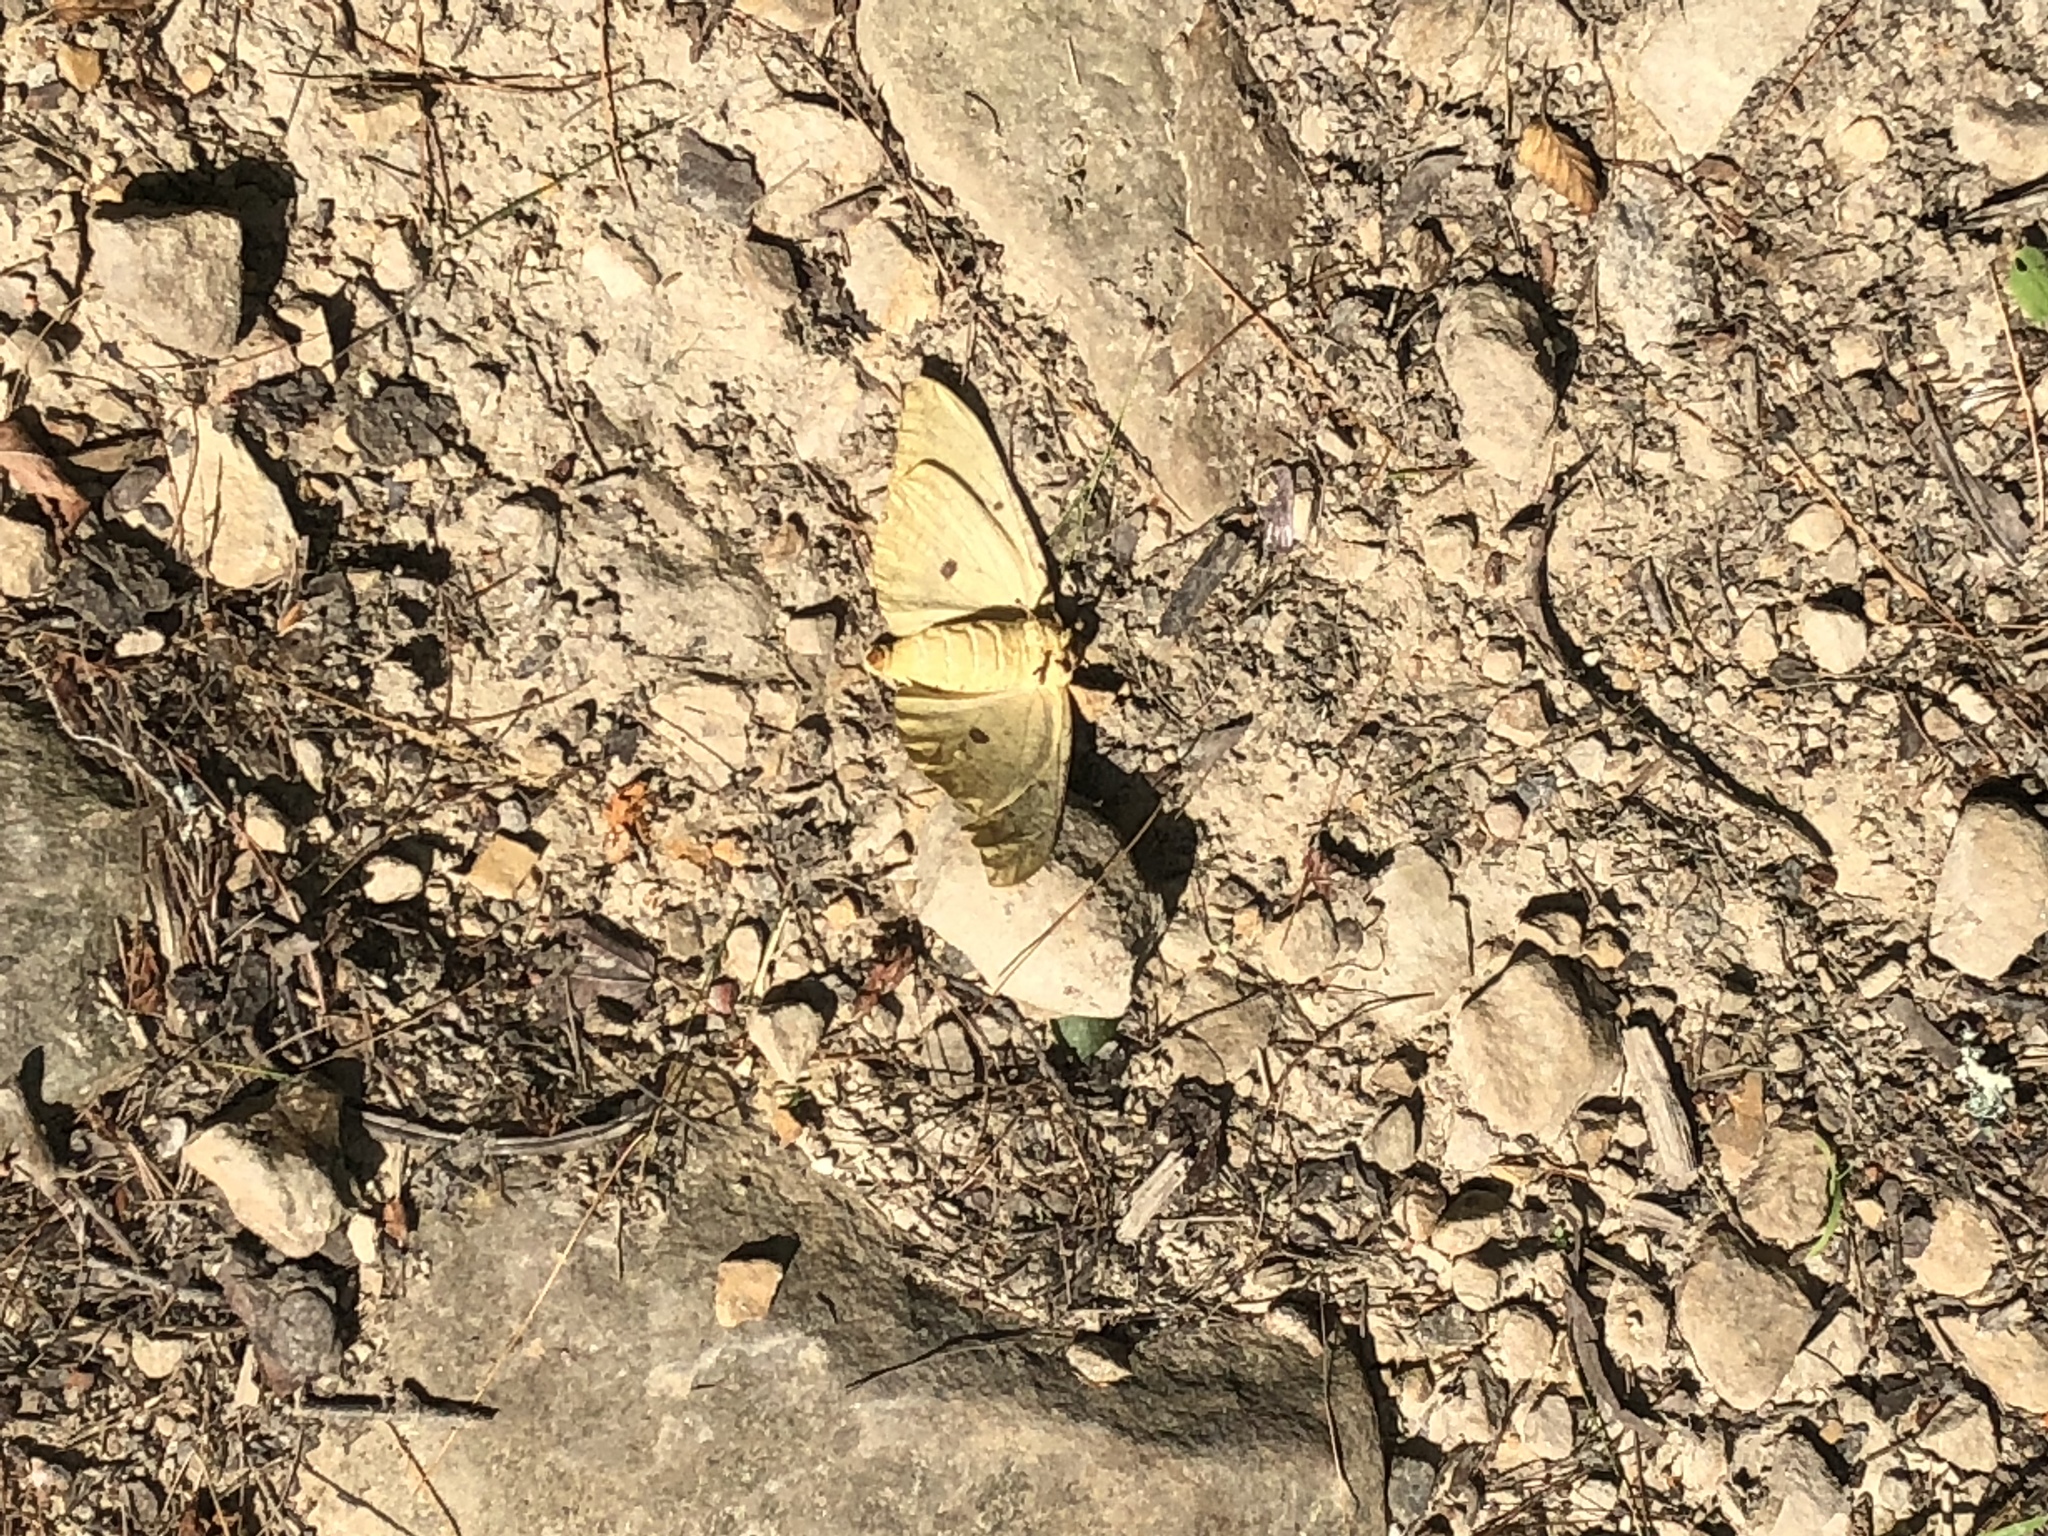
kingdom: Animalia
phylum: Arthropoda
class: Insecta
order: Lepidoptera
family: Saturniidae
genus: Eacles
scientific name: Eacles imperialis
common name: Imperial moth
